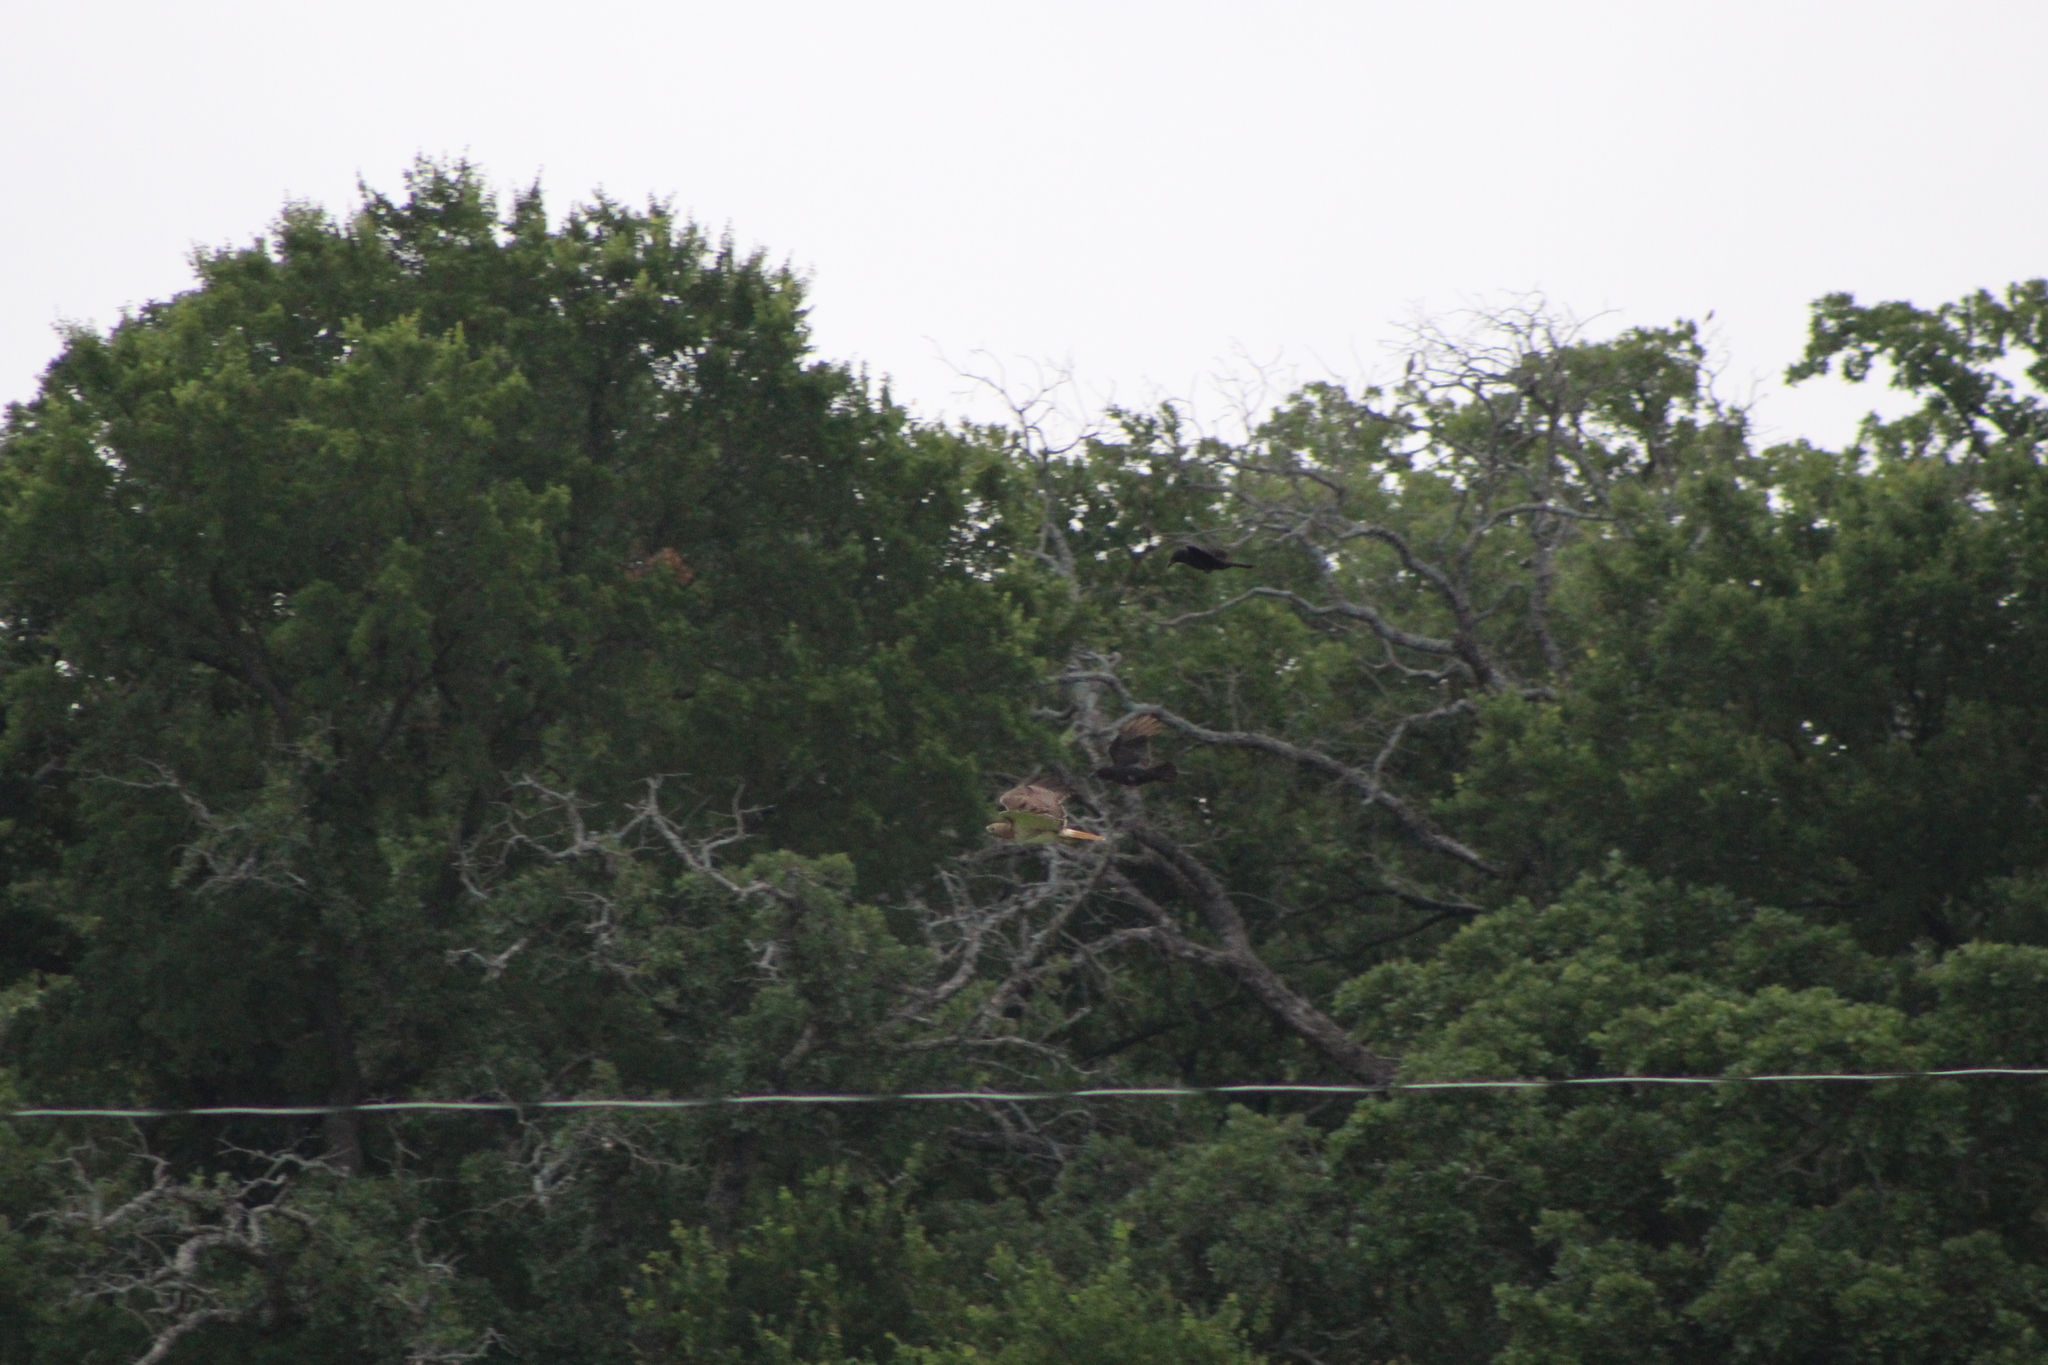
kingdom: Animalia
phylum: Chordata
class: Aves
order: Accipitriformes
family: Accipitridae
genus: Buteo
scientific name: Buteo jamaicensis
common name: Red-tailed hawk
